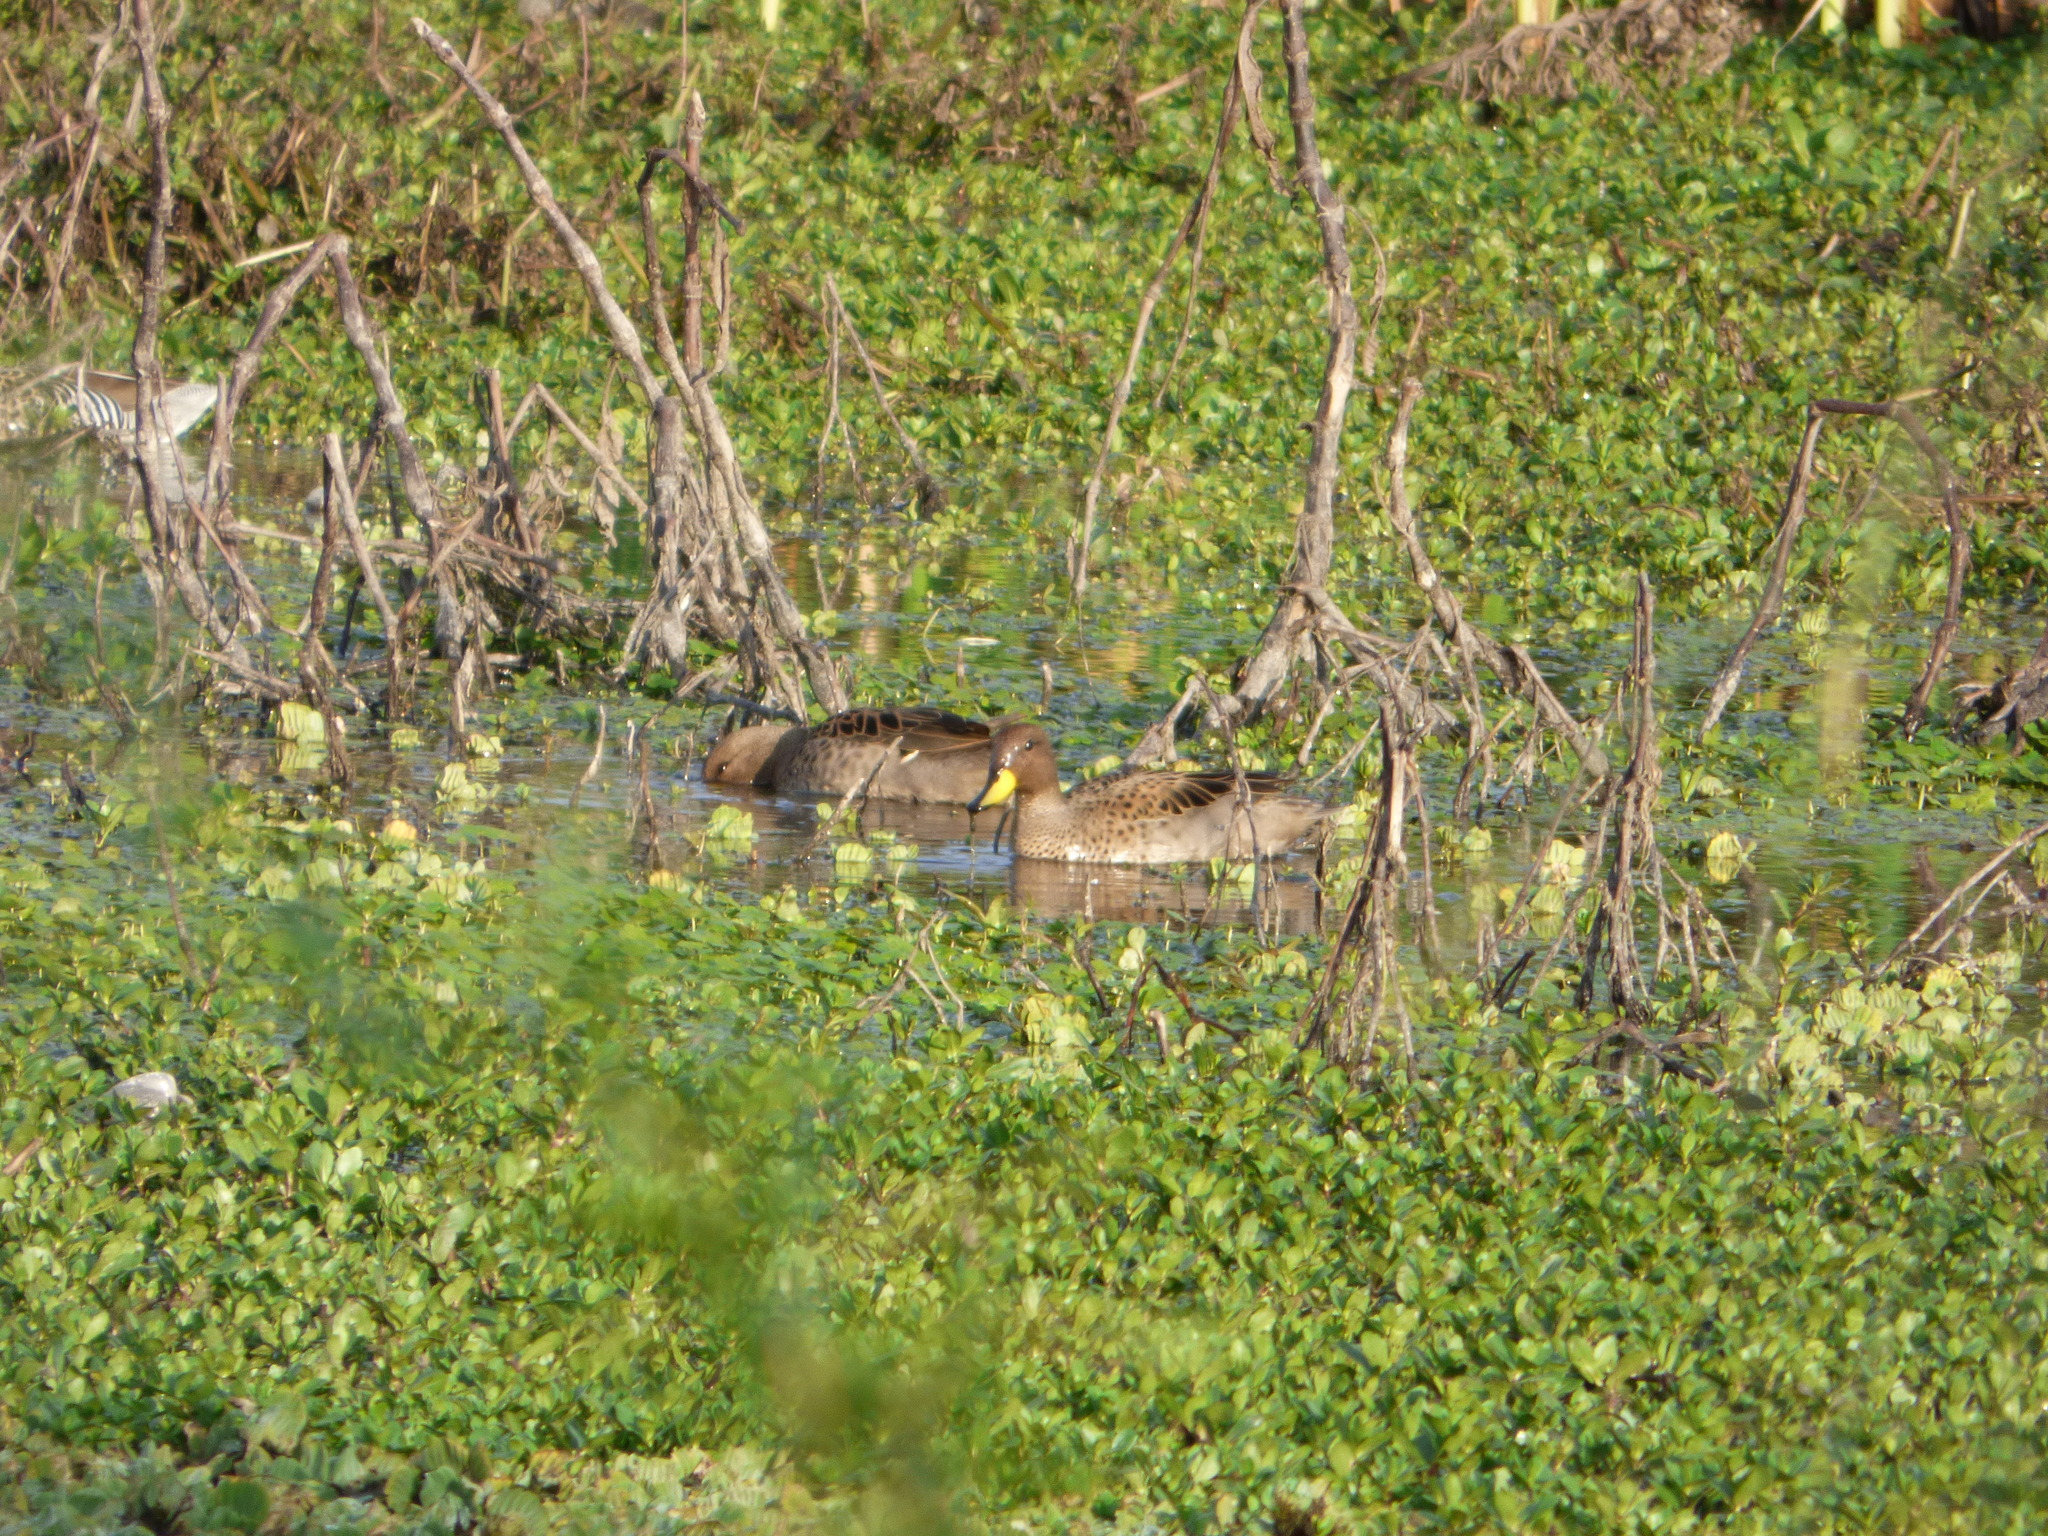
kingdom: Animalia
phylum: Chordata
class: Aves
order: Anseriformes
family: Anatidae
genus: Anas
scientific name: Anas flavirostris
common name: Yellow-billed teal
